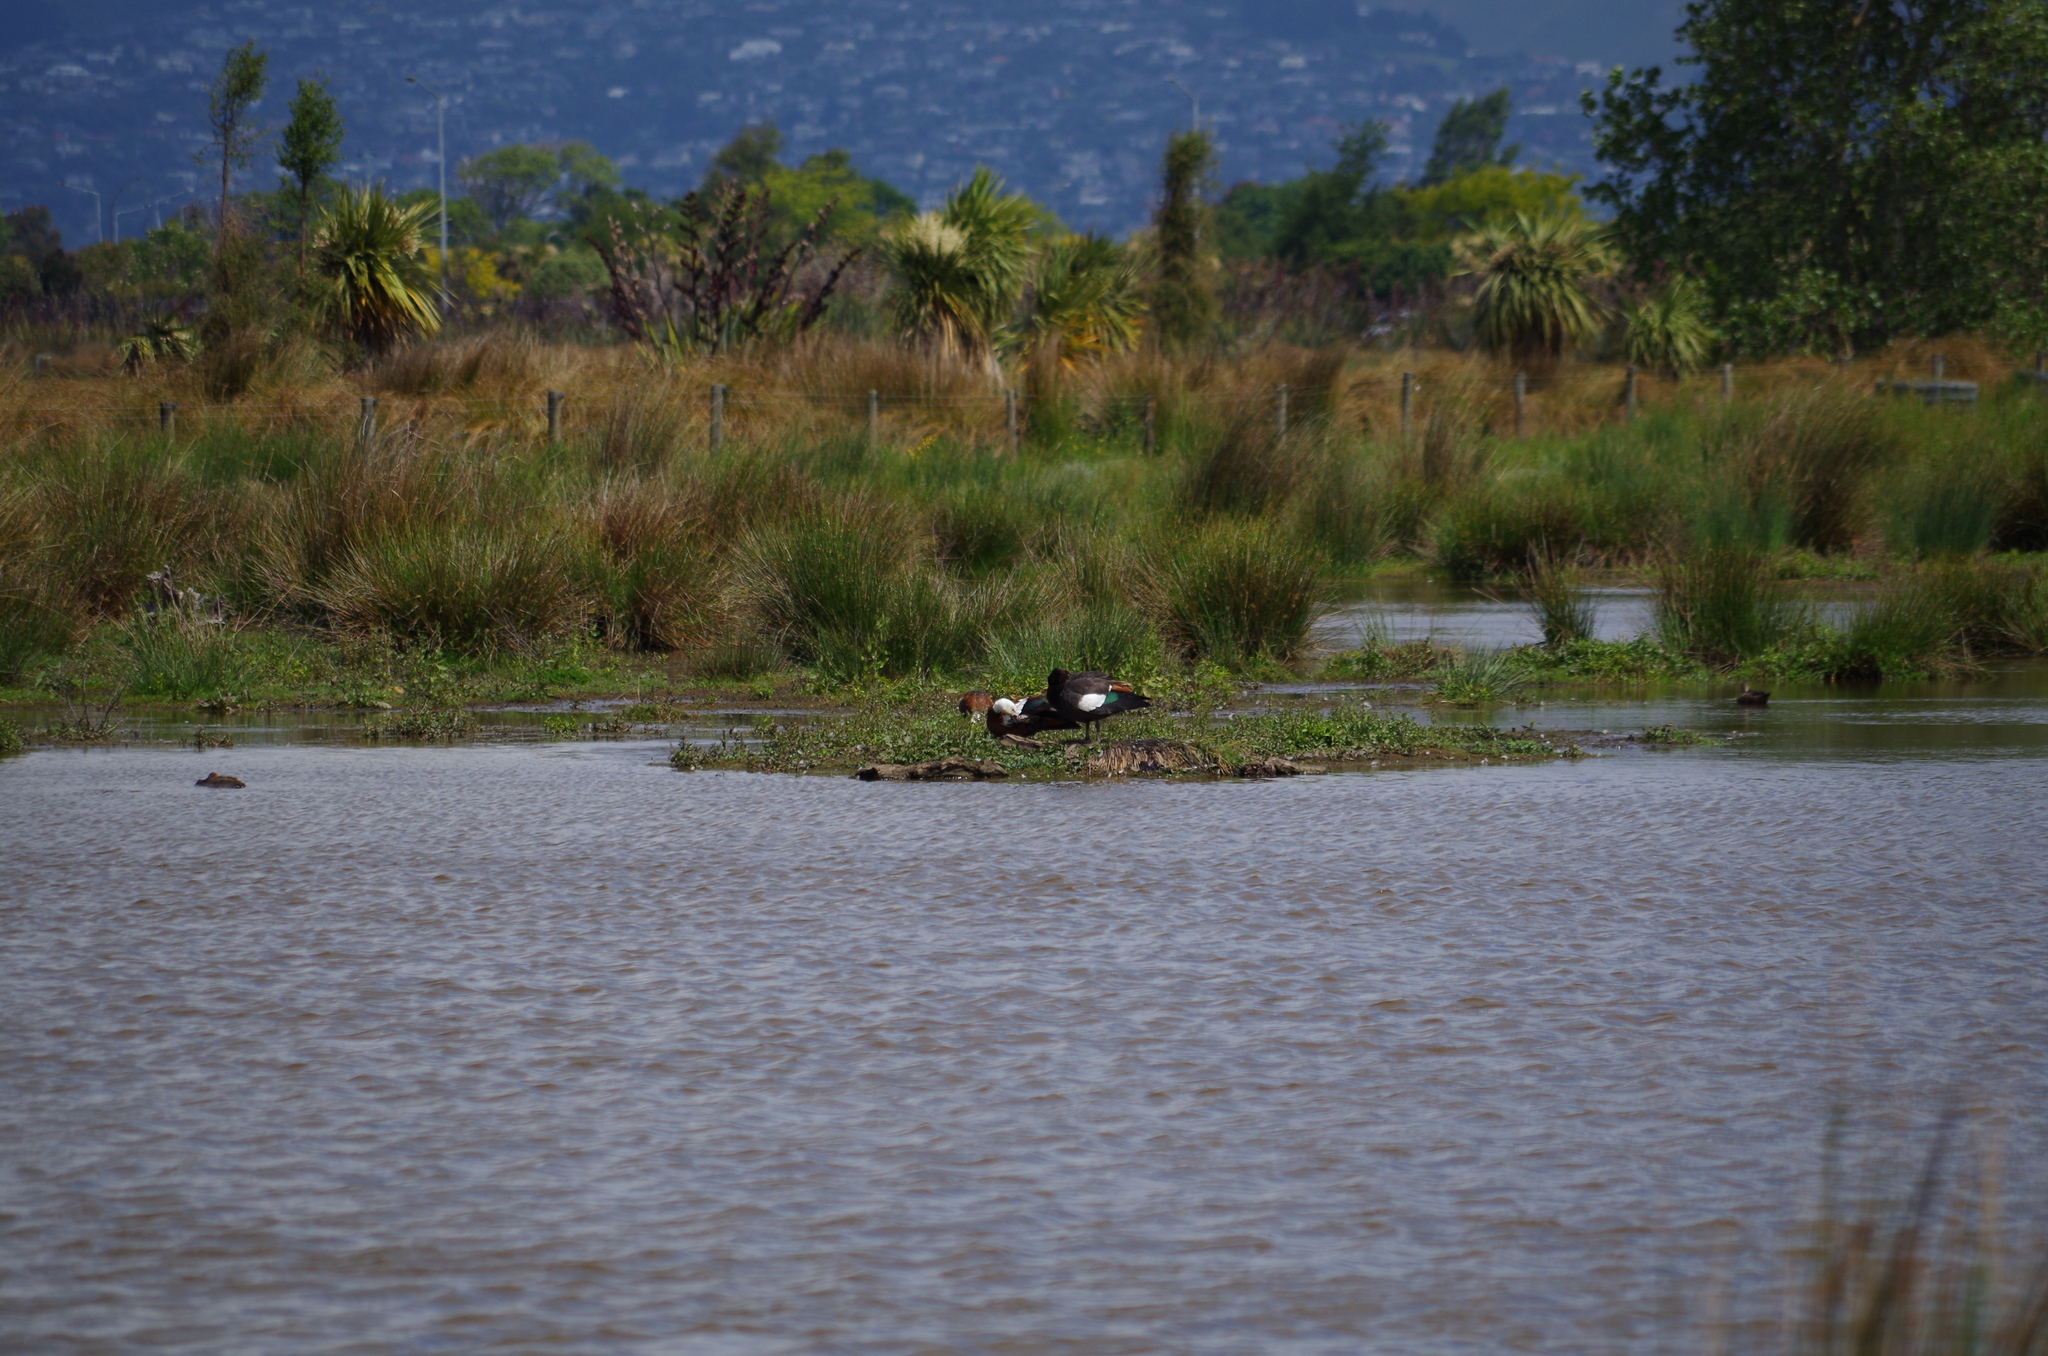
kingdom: Animalia
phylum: Chordata
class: Aves
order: Anseriformes
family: Anatidae
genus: Tadorna
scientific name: Tadorna variegata
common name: Paradise shelduck
